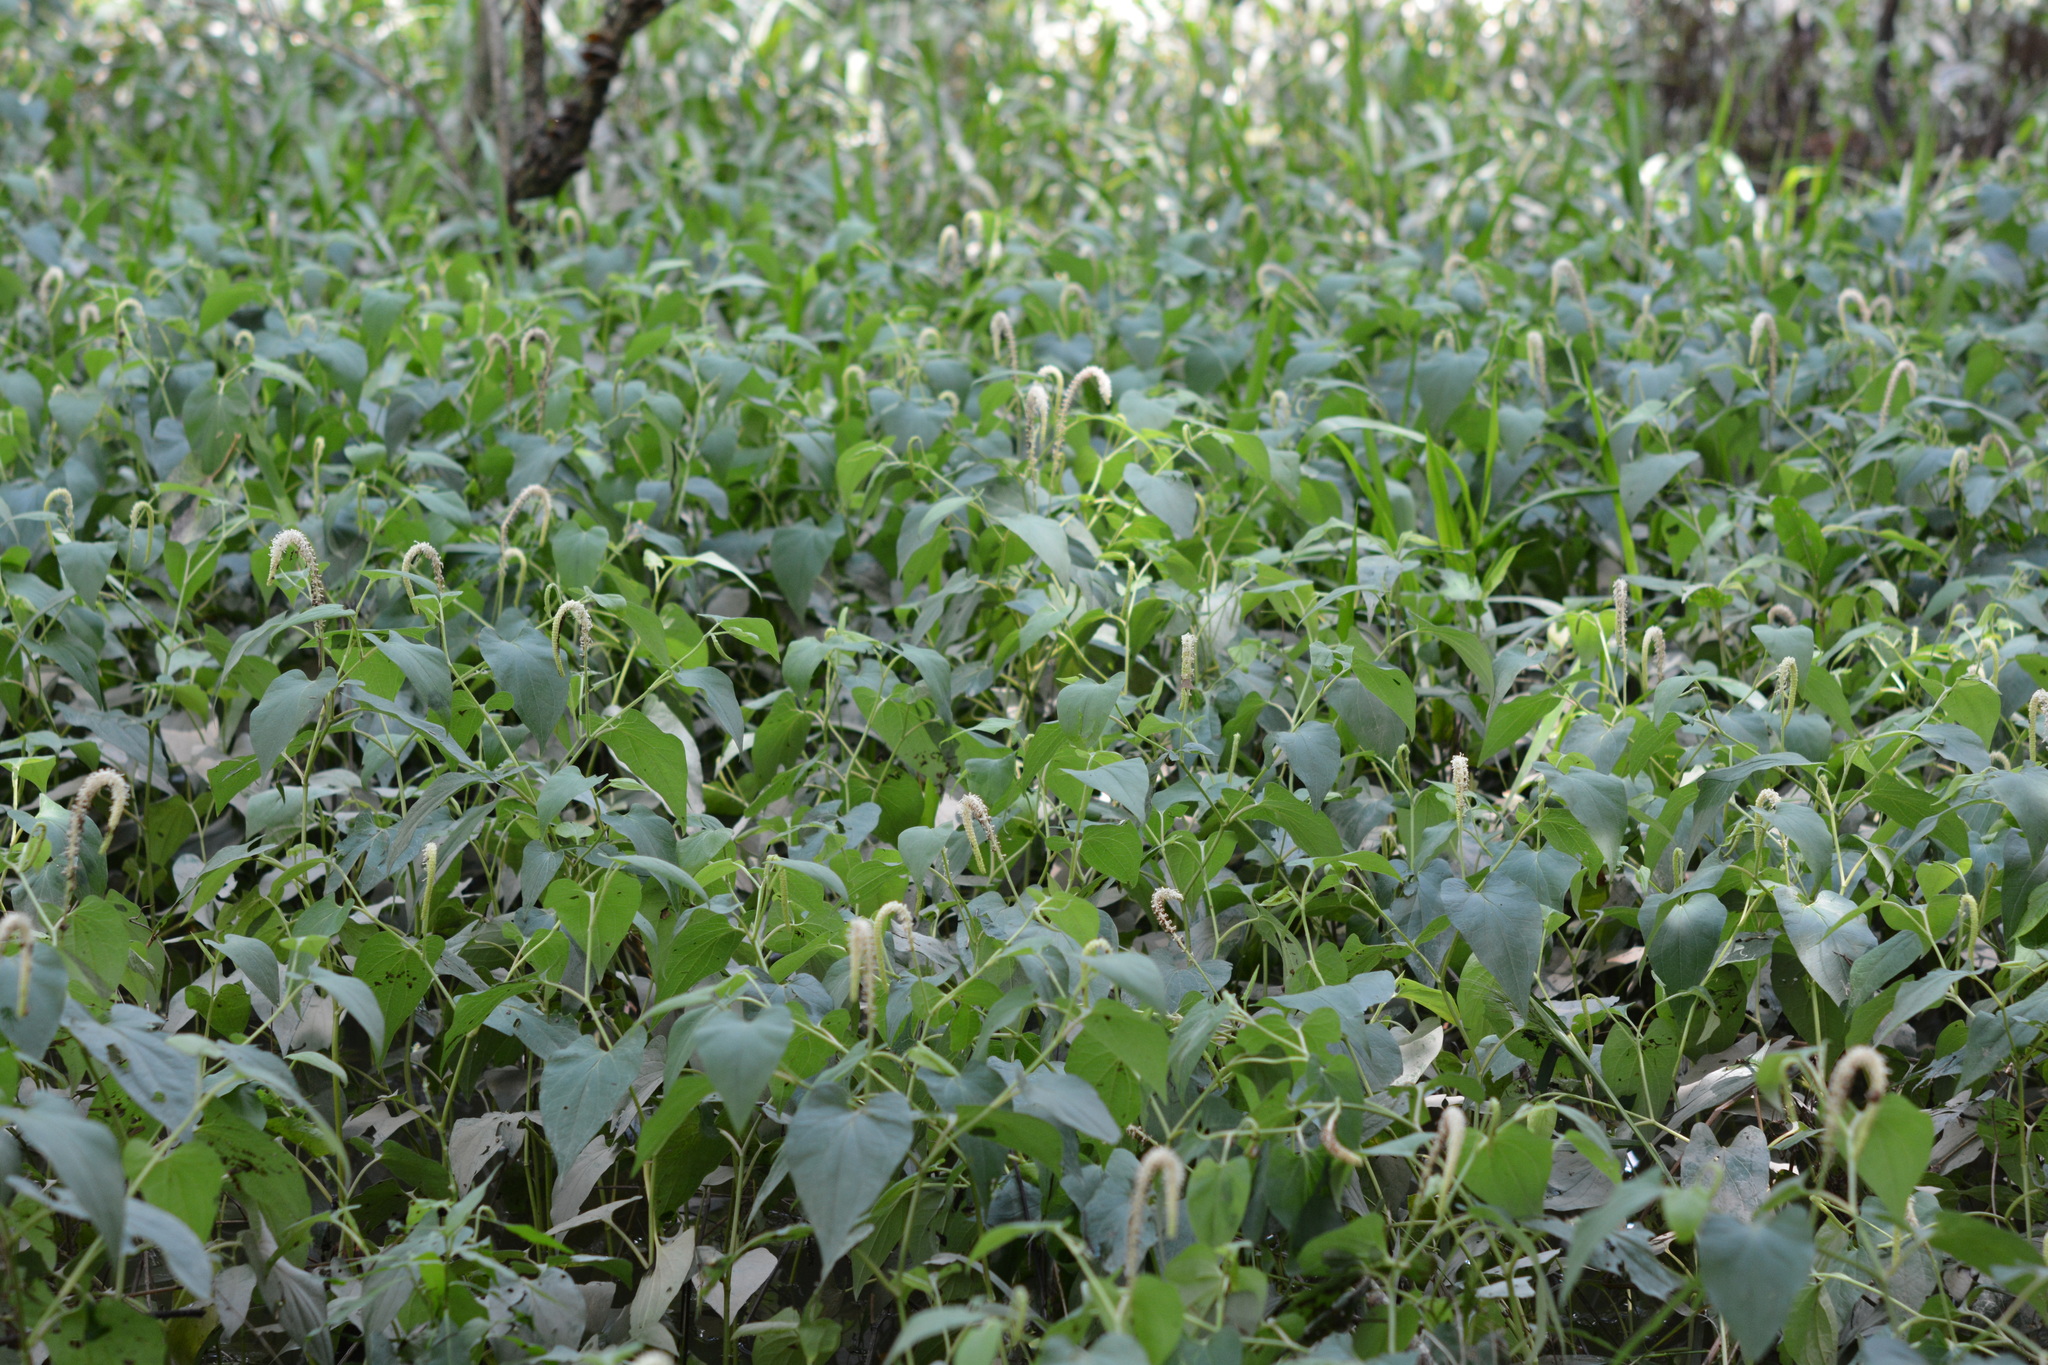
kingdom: Plantae
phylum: Tracheophyta
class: Magnoliopsida
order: Piperales
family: Saururaceae
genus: Saururus
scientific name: Saururus cernuus
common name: Lizard's-tail
